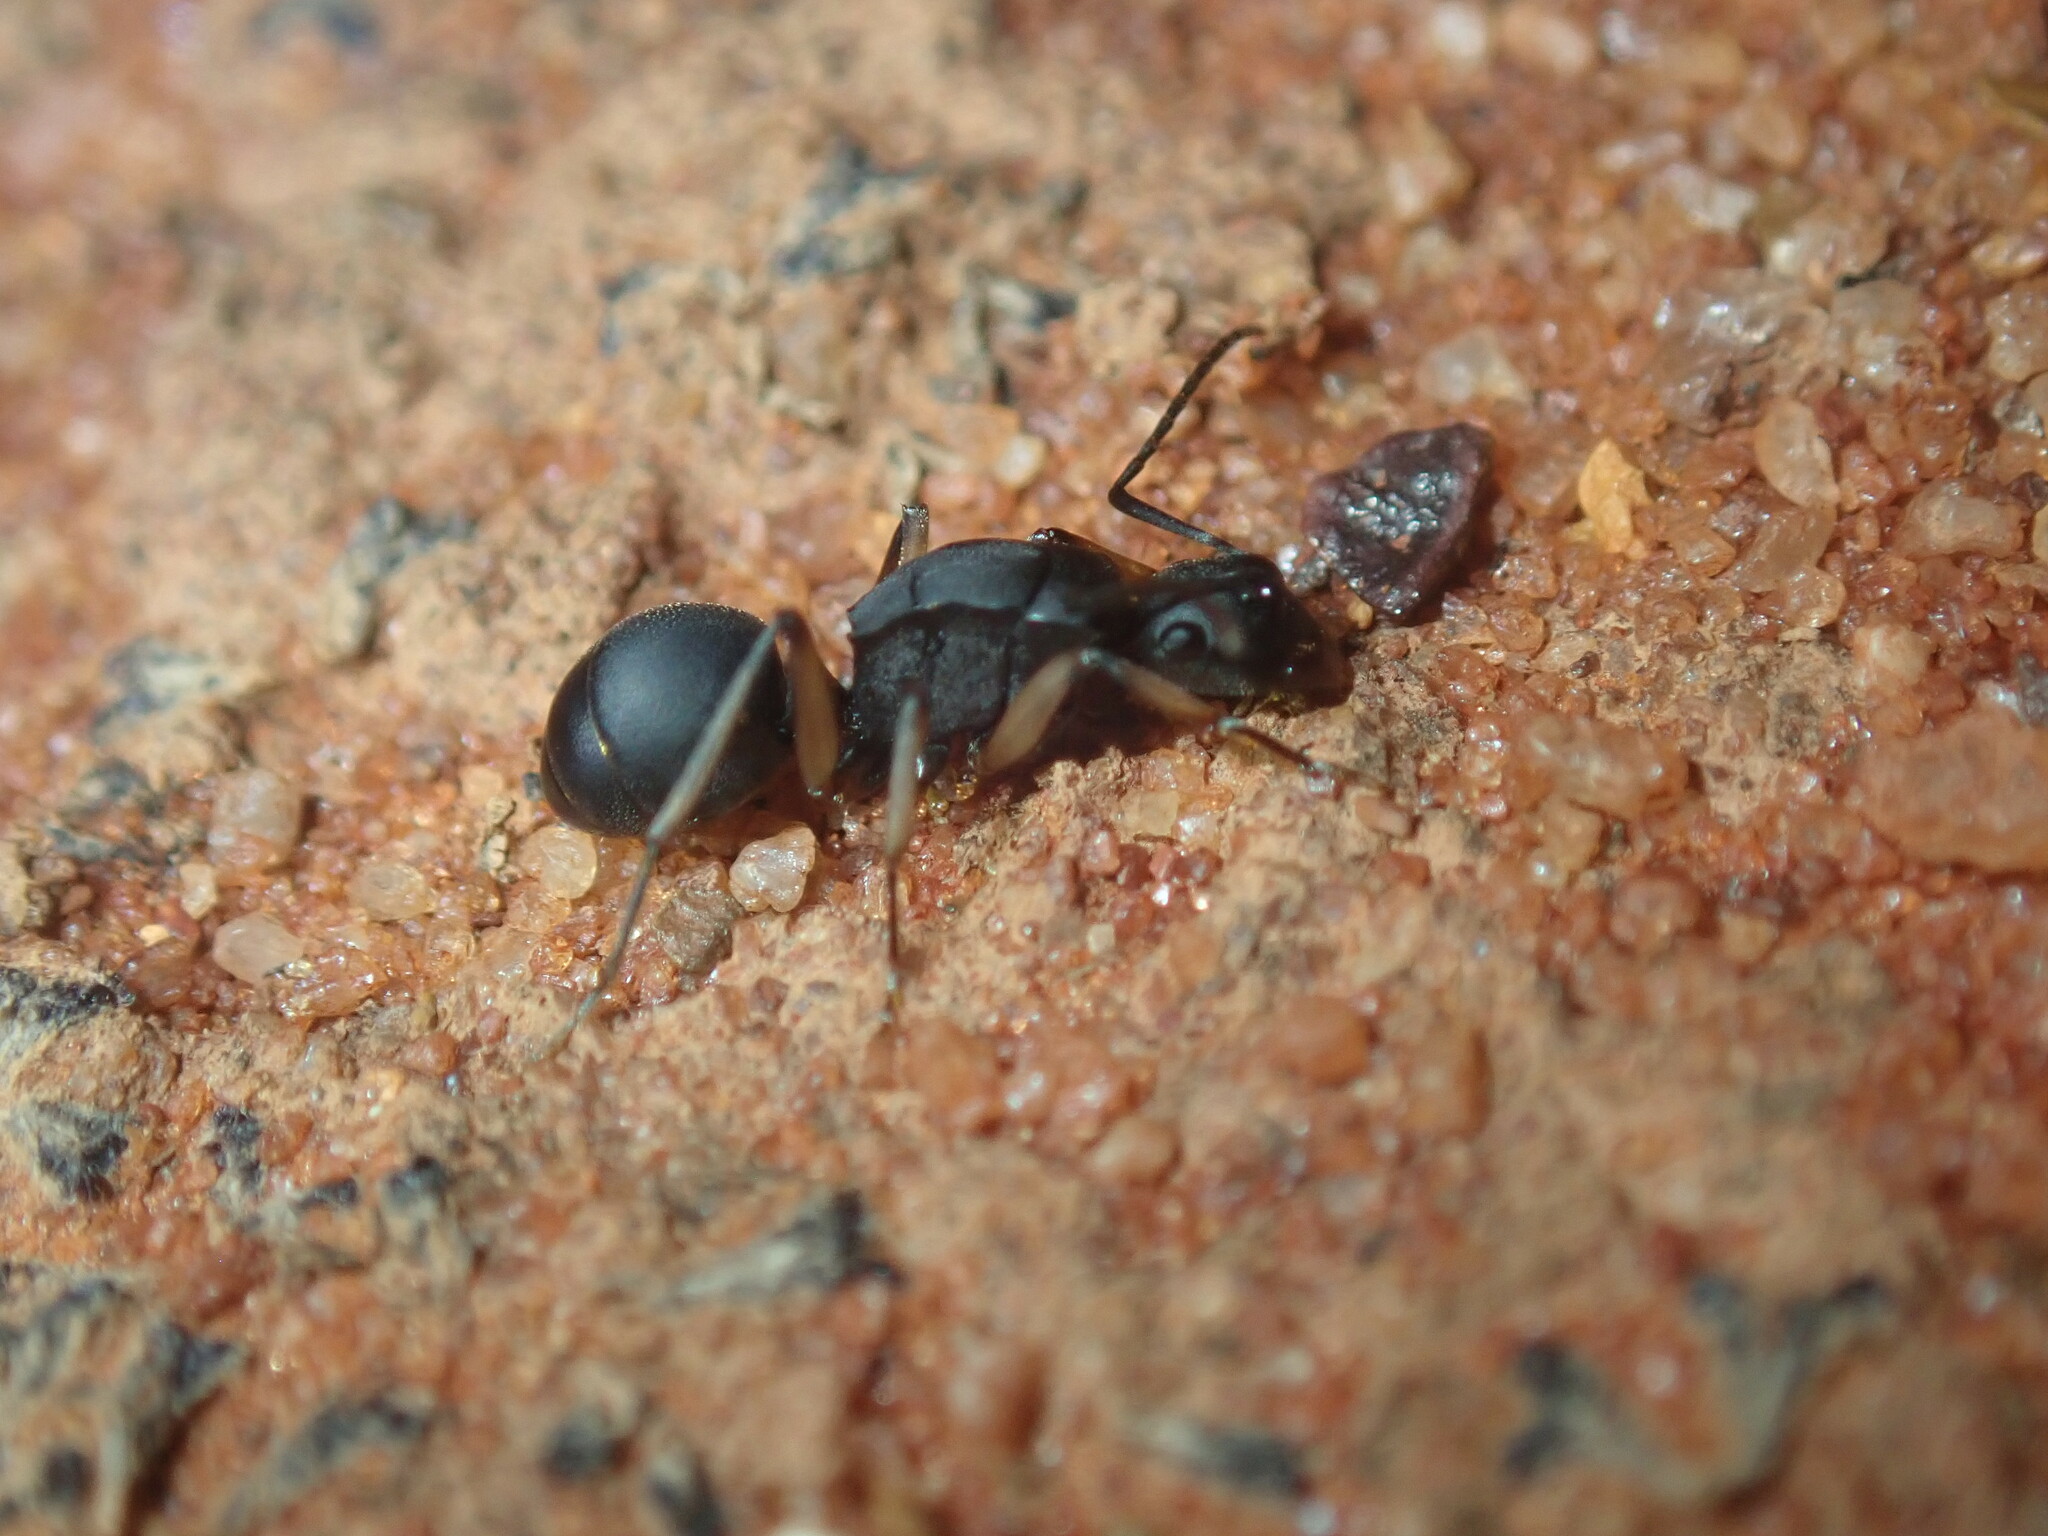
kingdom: Animalia
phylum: Arthropoda
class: Insecta
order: Hymenoptera
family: Formicidae
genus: Polyrhachis
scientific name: Polyrhachis schwiedlandi
